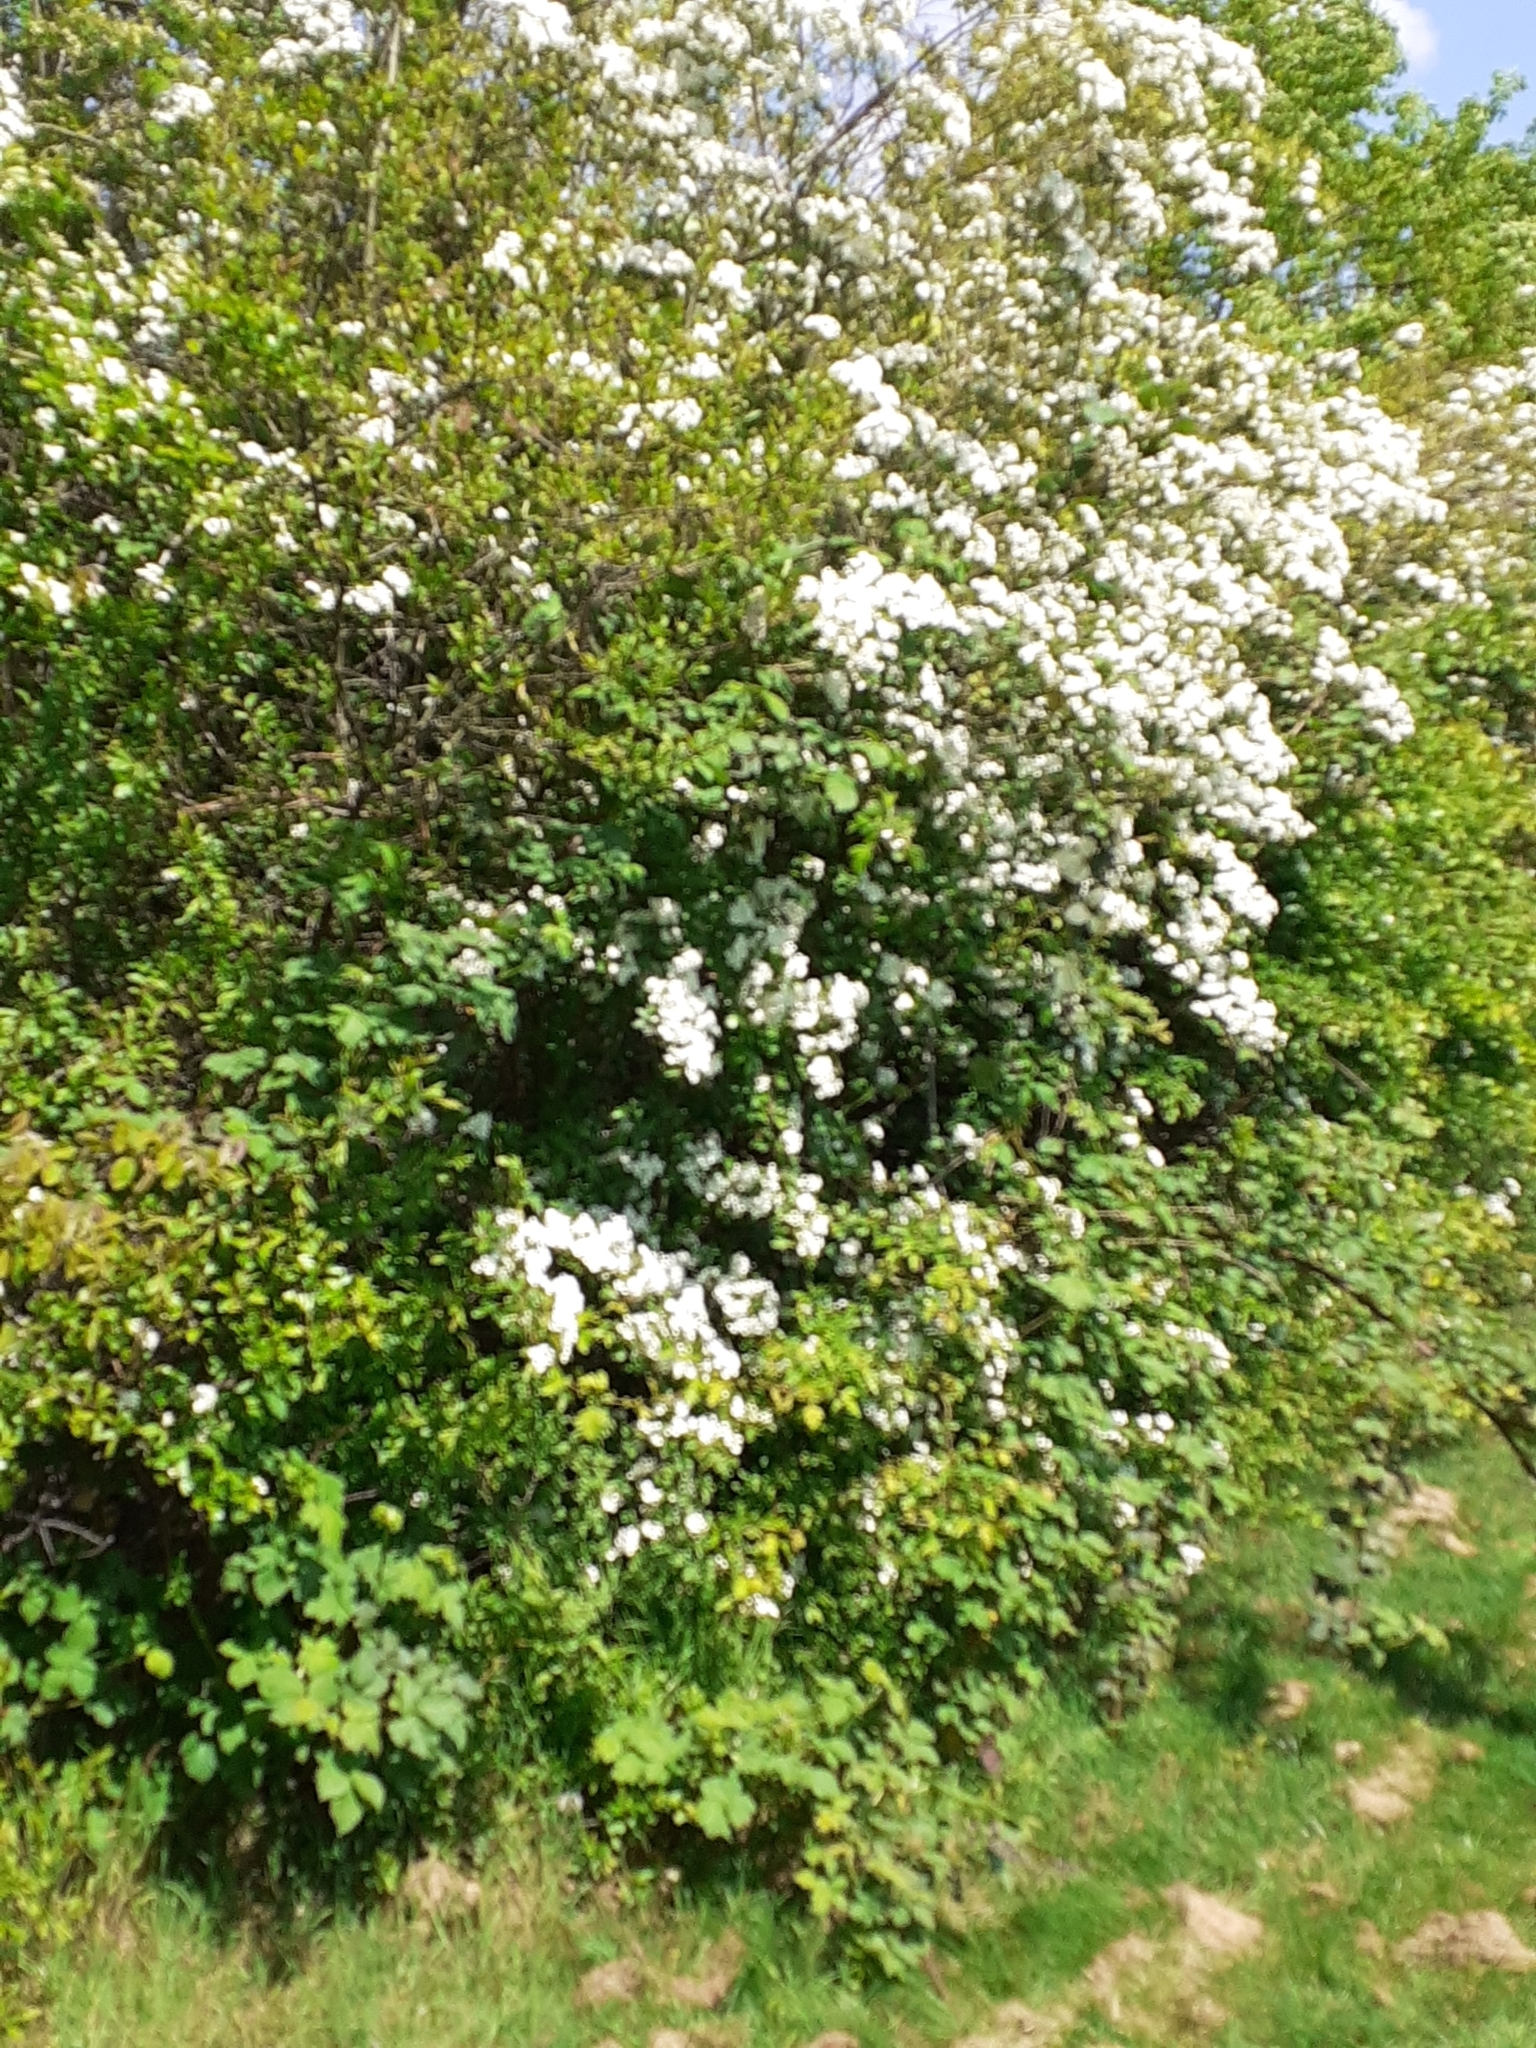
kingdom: Plantae
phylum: Tracheophyta
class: Magnoliopsida
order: Rosales
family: Rosaceae
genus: Crataegus
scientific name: Crataegus monogyna
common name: Hawthorn
